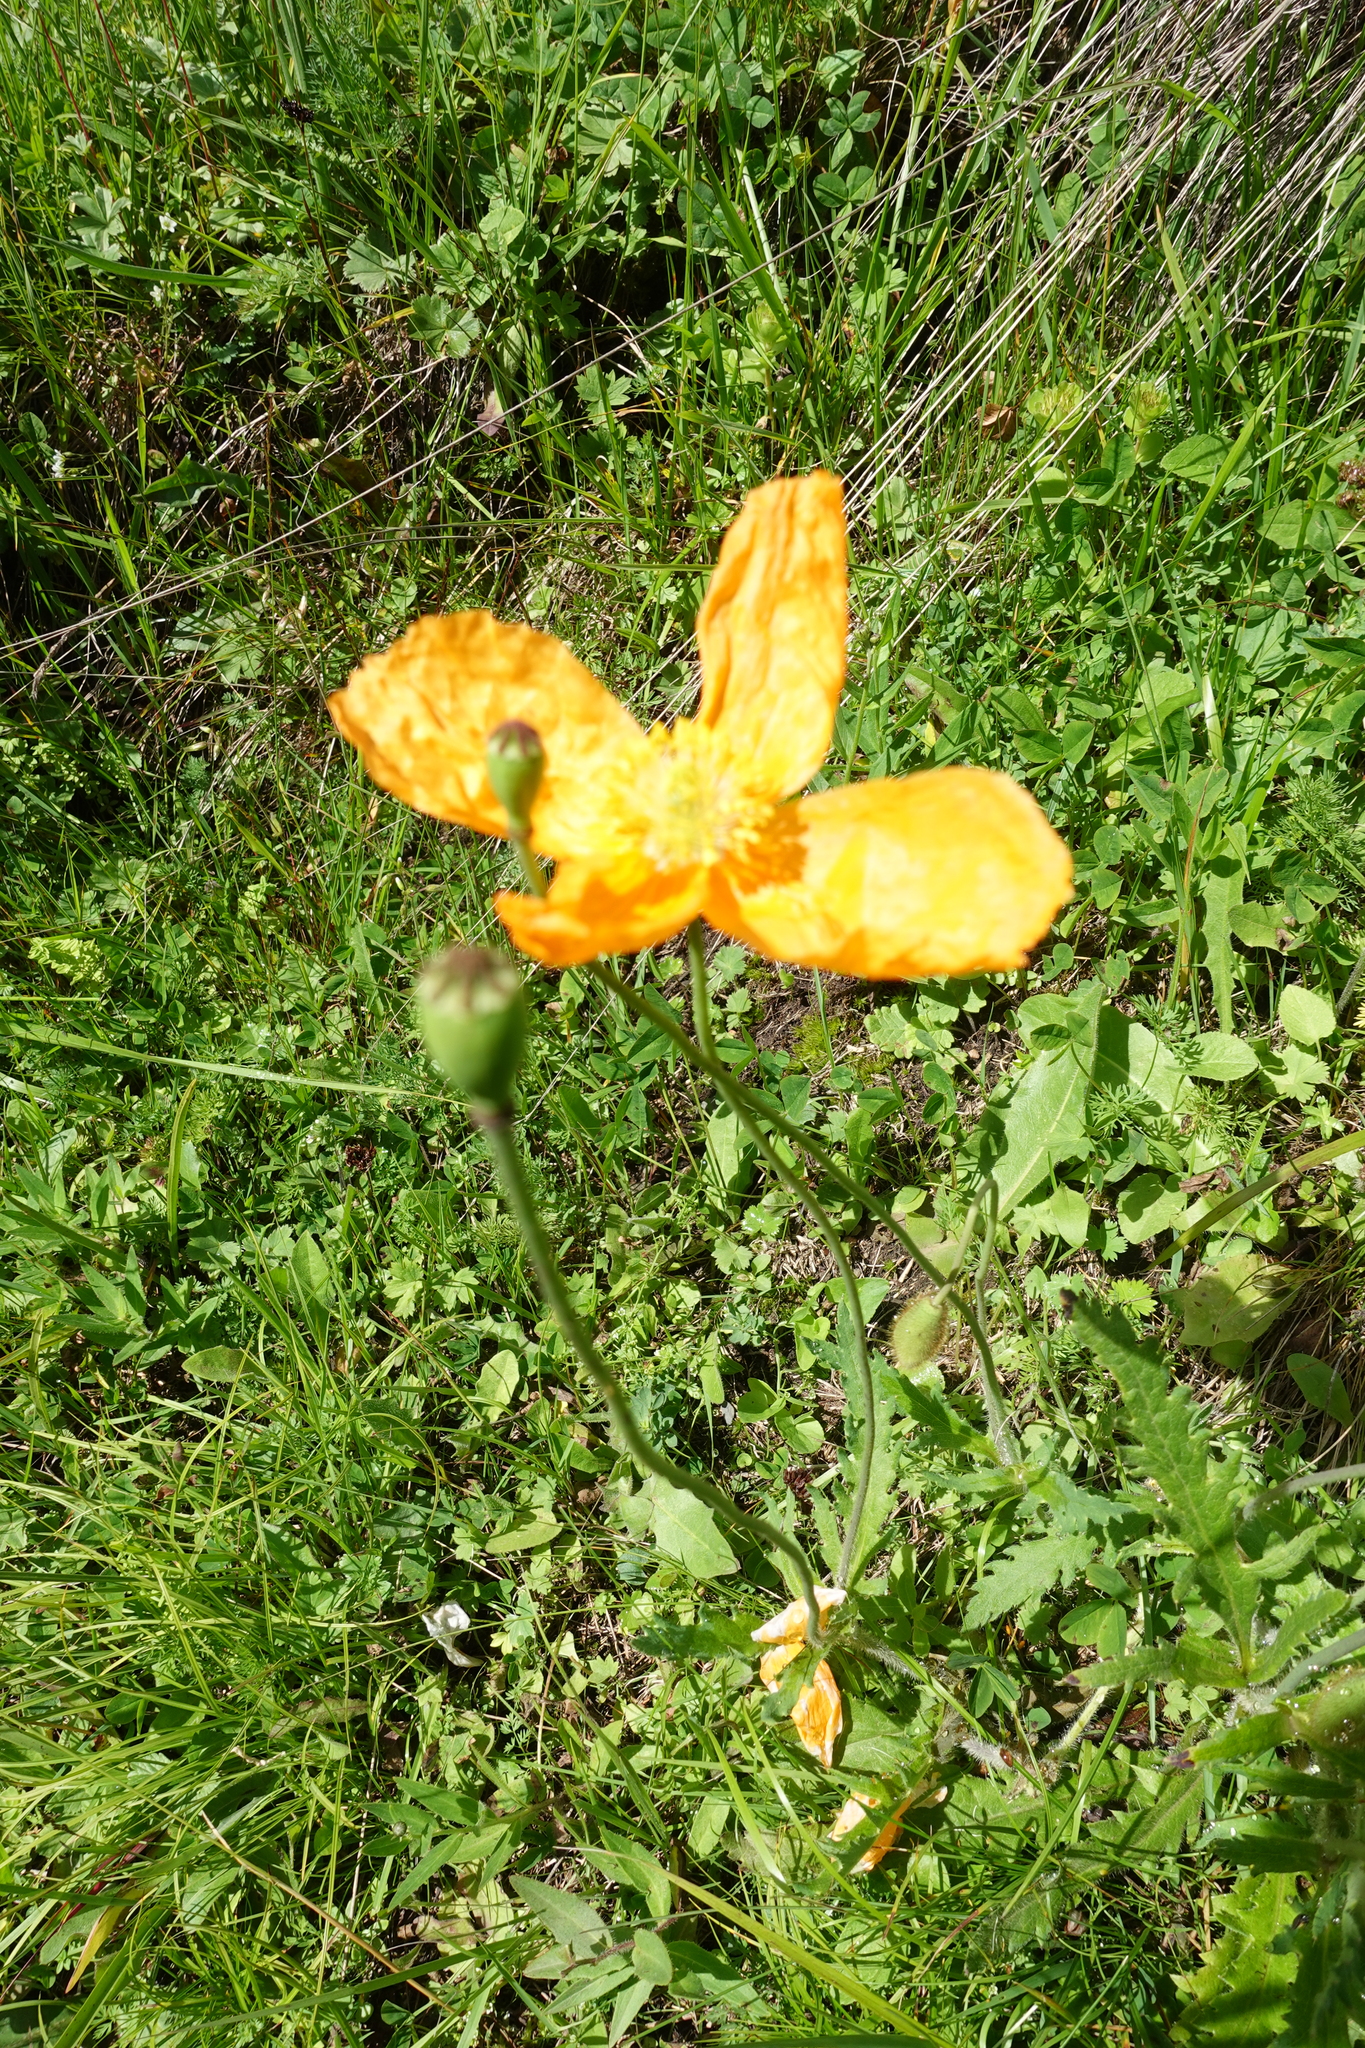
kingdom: Plantae
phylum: Tracheophyta
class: Magnoliopsida
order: Ranunculales
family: Papaveraceae
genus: Papaver
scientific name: Papaver oreophilum
